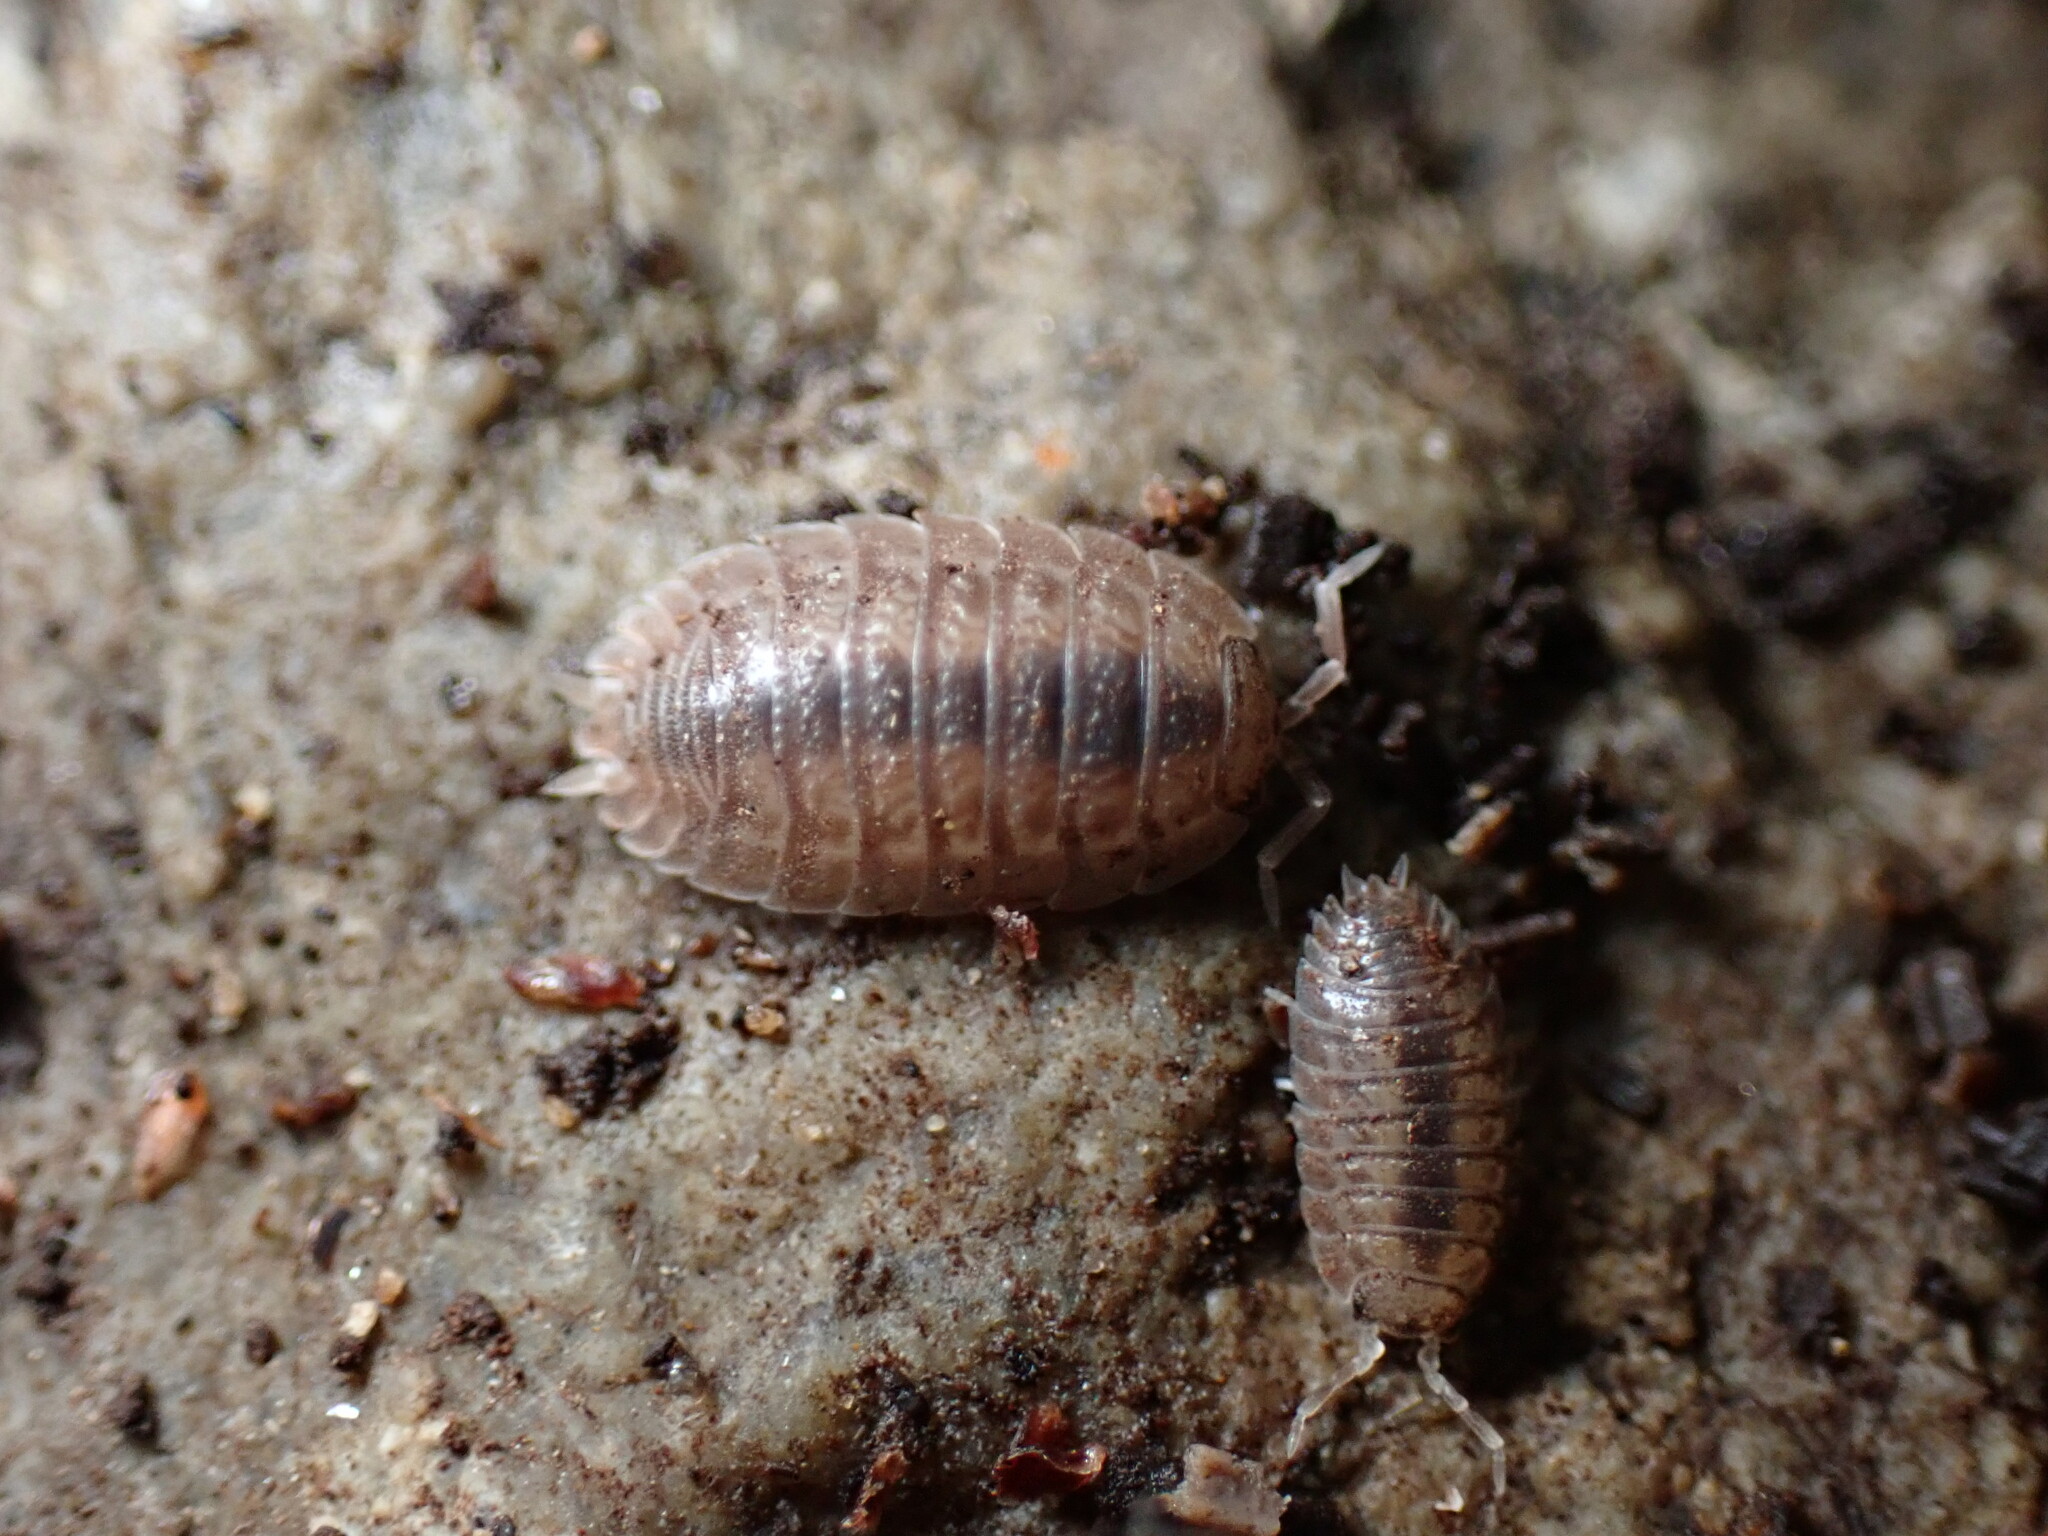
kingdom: Animalia
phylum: Arthropoda
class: Malacostraca
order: Isopoda
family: Porcellionidae
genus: Porcellio
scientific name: Porcellio dilatatus
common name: Isopod
